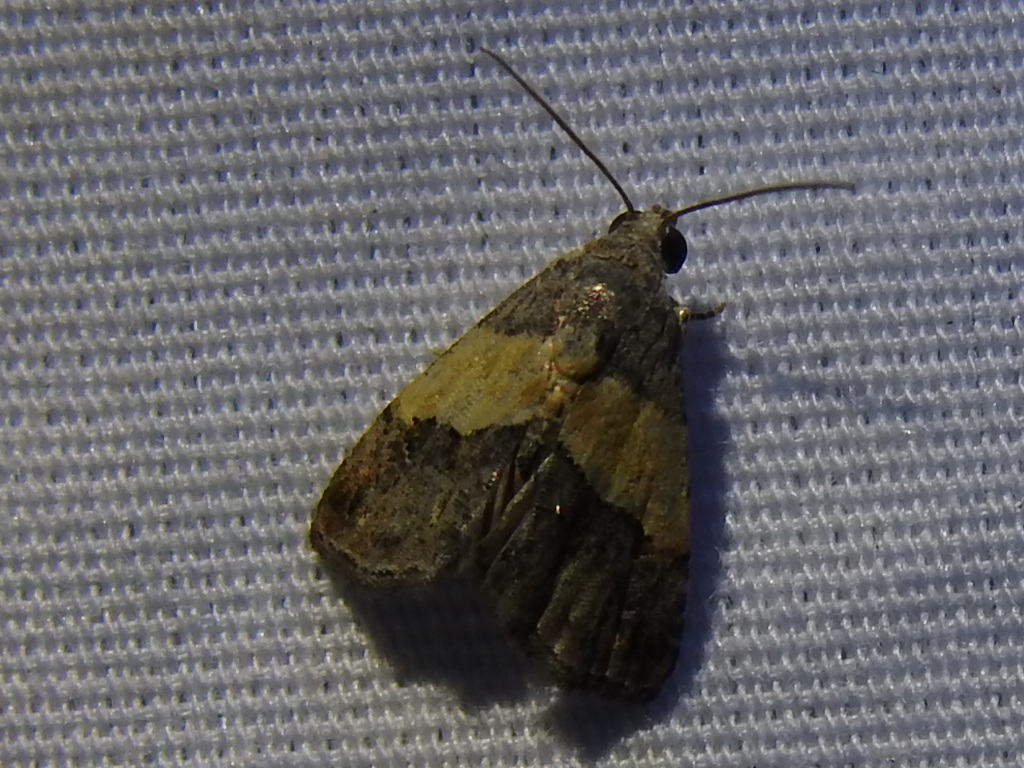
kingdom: Animalia
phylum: Arthropoda
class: Insecta
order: Lepidoptera
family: Noctuidae
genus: Tripudia
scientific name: Tripudia flavofasciata
